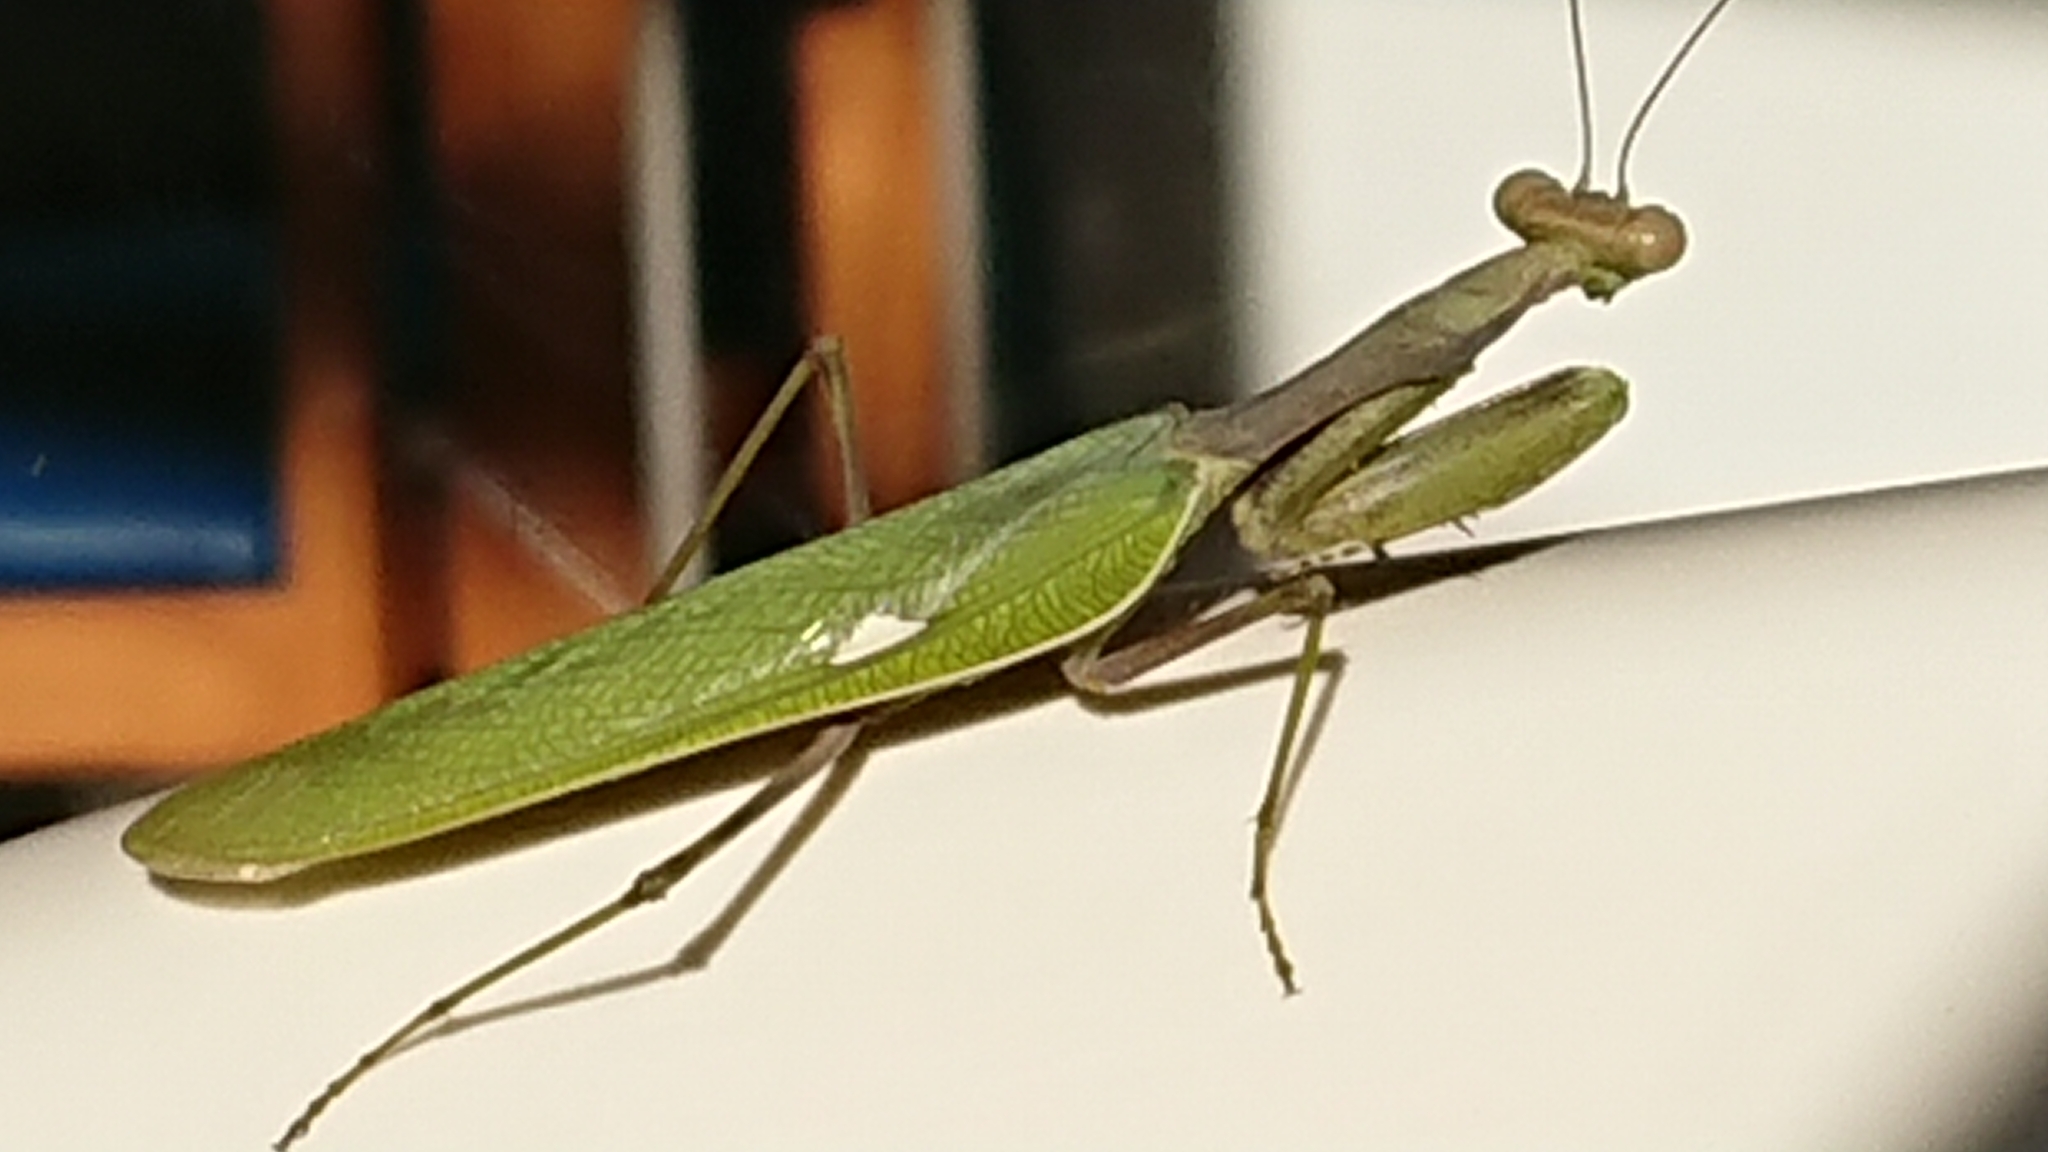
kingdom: Animalia
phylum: Arthropoda
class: Insecta
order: Mantodea
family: Mantidae
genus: Sphodromantis
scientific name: Sphodromantis viridis
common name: Giant african mantis
